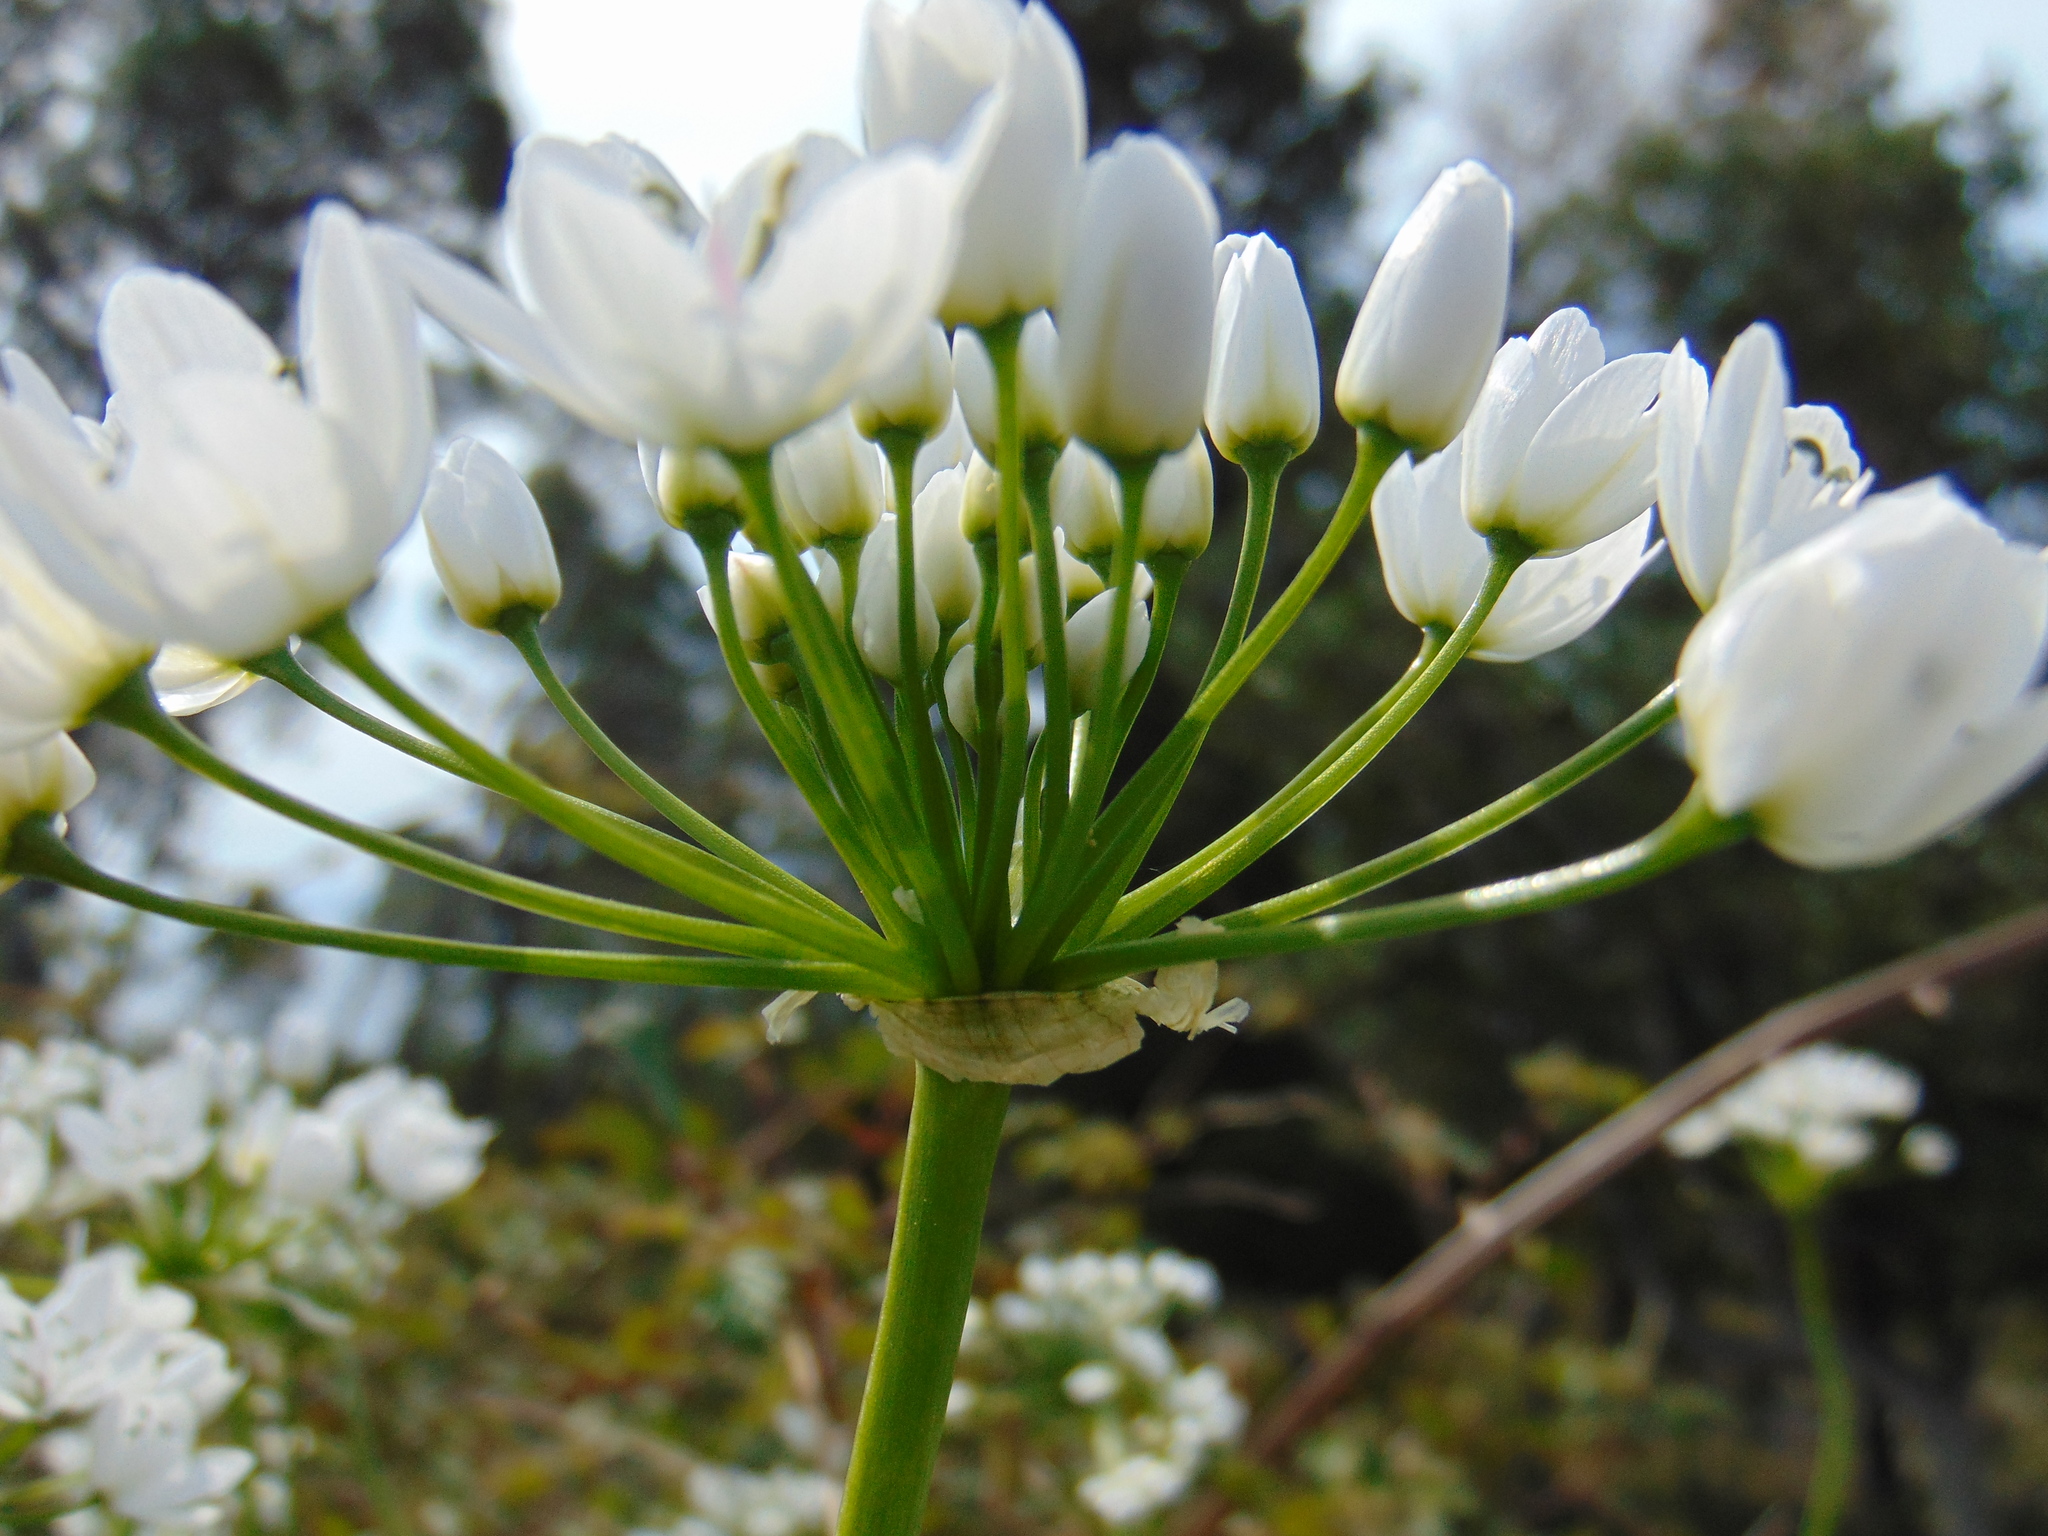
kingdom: Plantae
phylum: Tracheophyta
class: Liliopsida
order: Asparagales
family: Amaryllidaceae
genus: Allium
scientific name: Allium neapolitanum
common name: Neapolitan garlic
